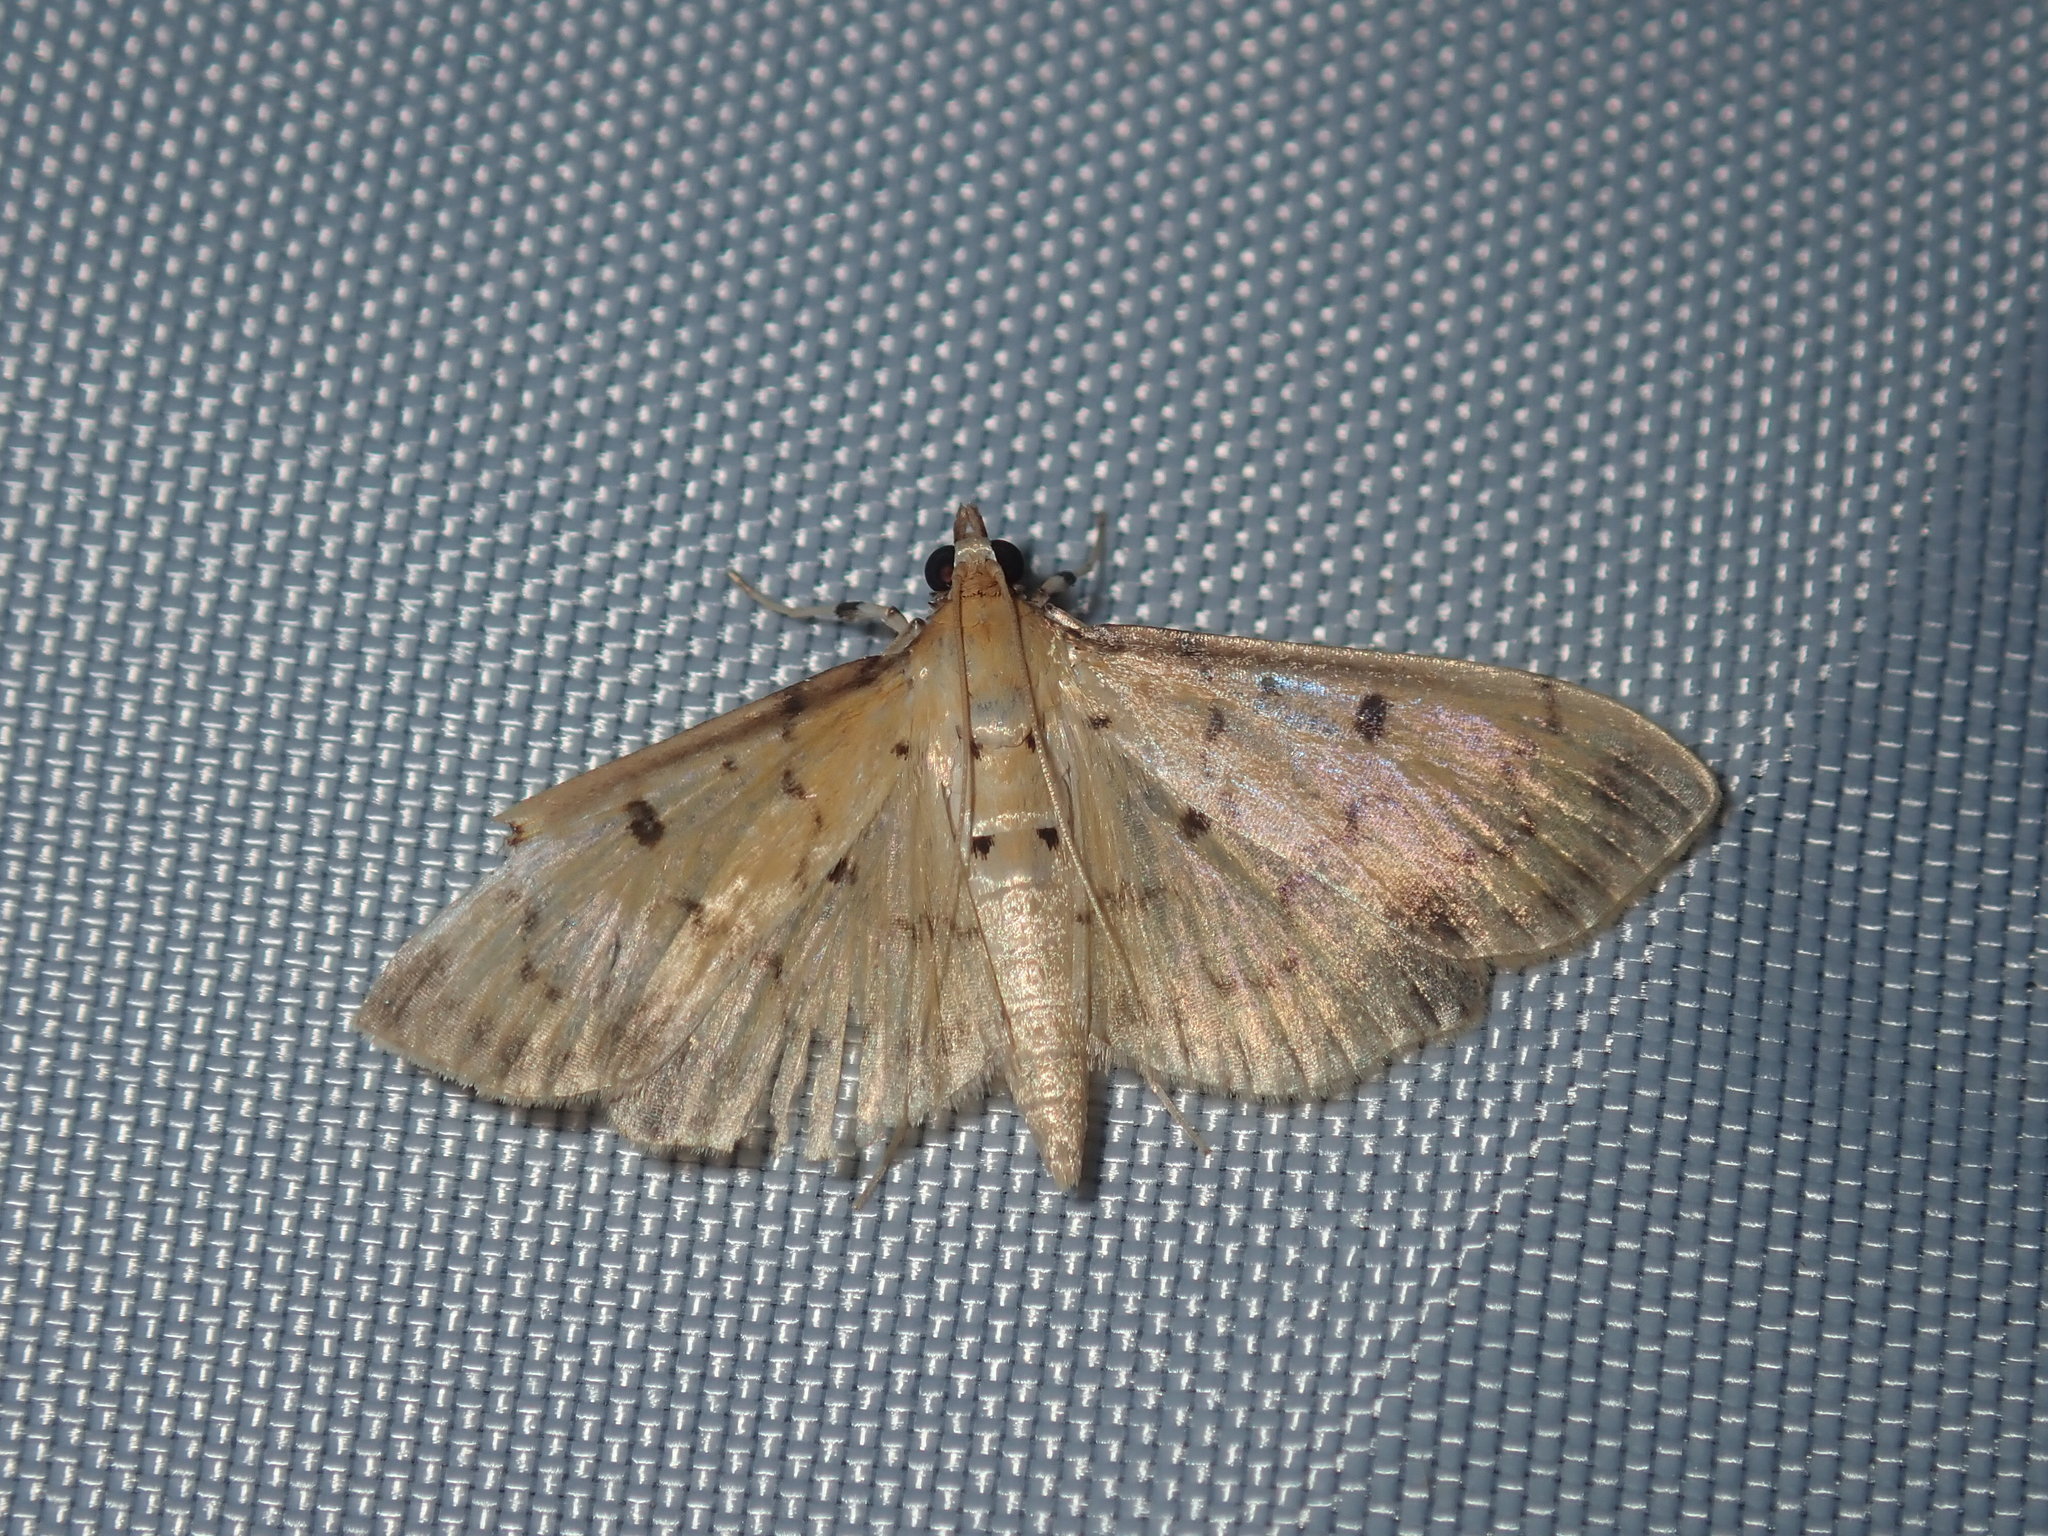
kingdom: Animalia
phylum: Arthropoda
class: Insecta
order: Lepidoptera
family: Crambidae
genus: Herpetogramma
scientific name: Herpetogramma cynaralis
